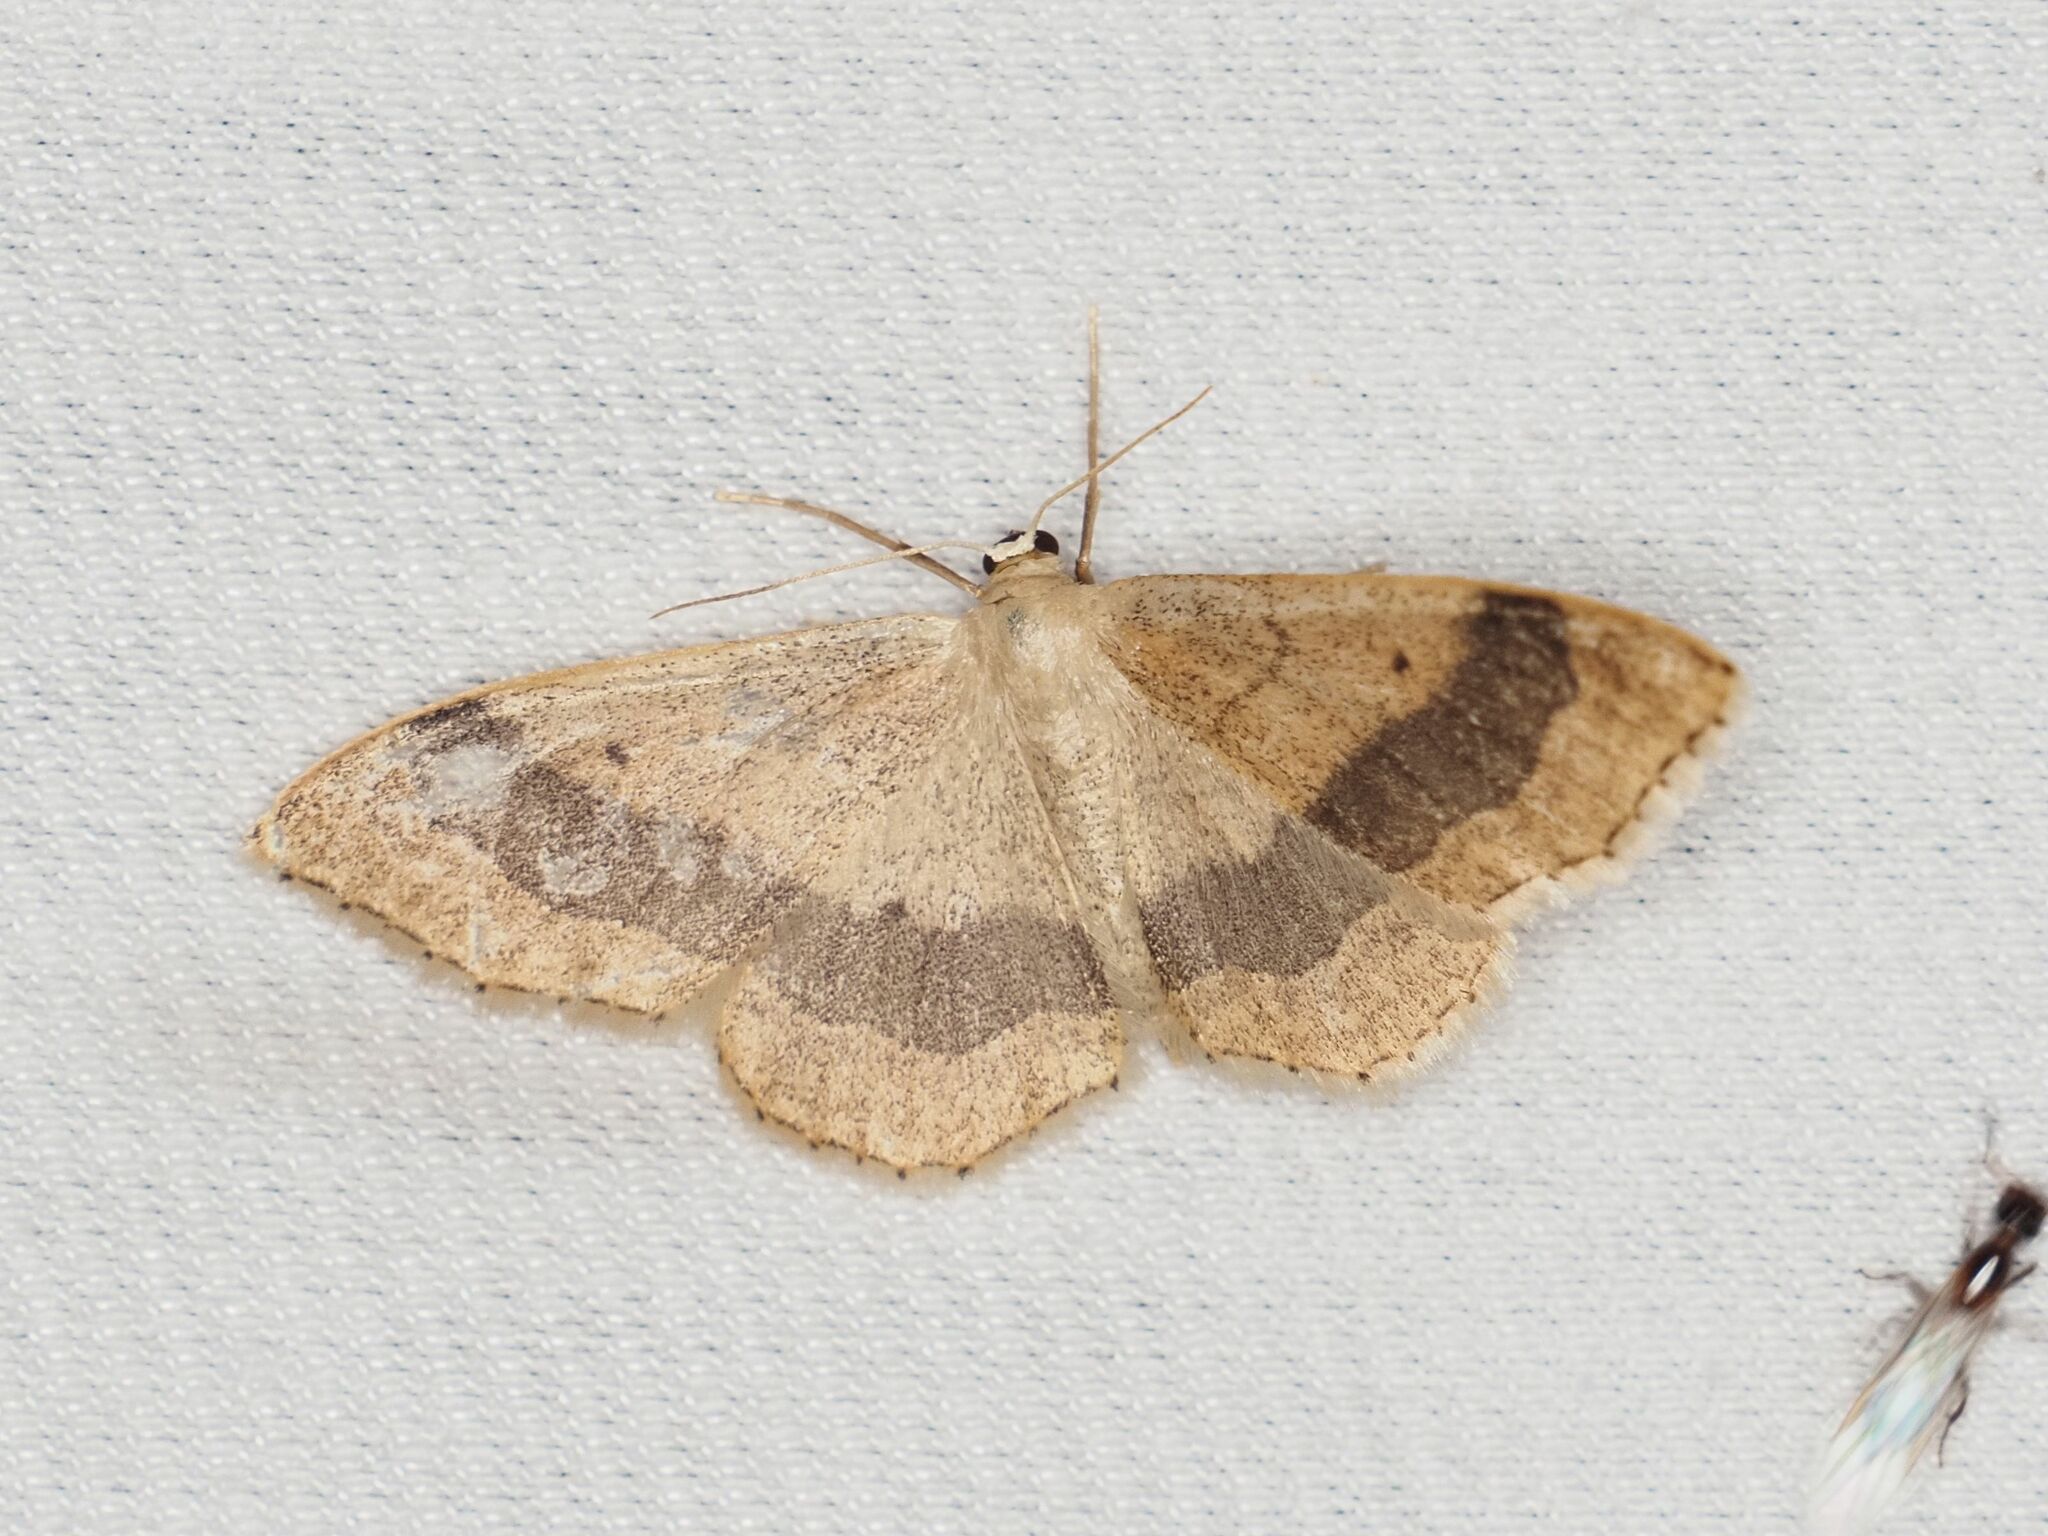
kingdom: Animalia
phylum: Arthropoda
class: Insecta
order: Lepidoptera
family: Geometridae
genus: Idaea
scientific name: Idaea aversata
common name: Riband wave
